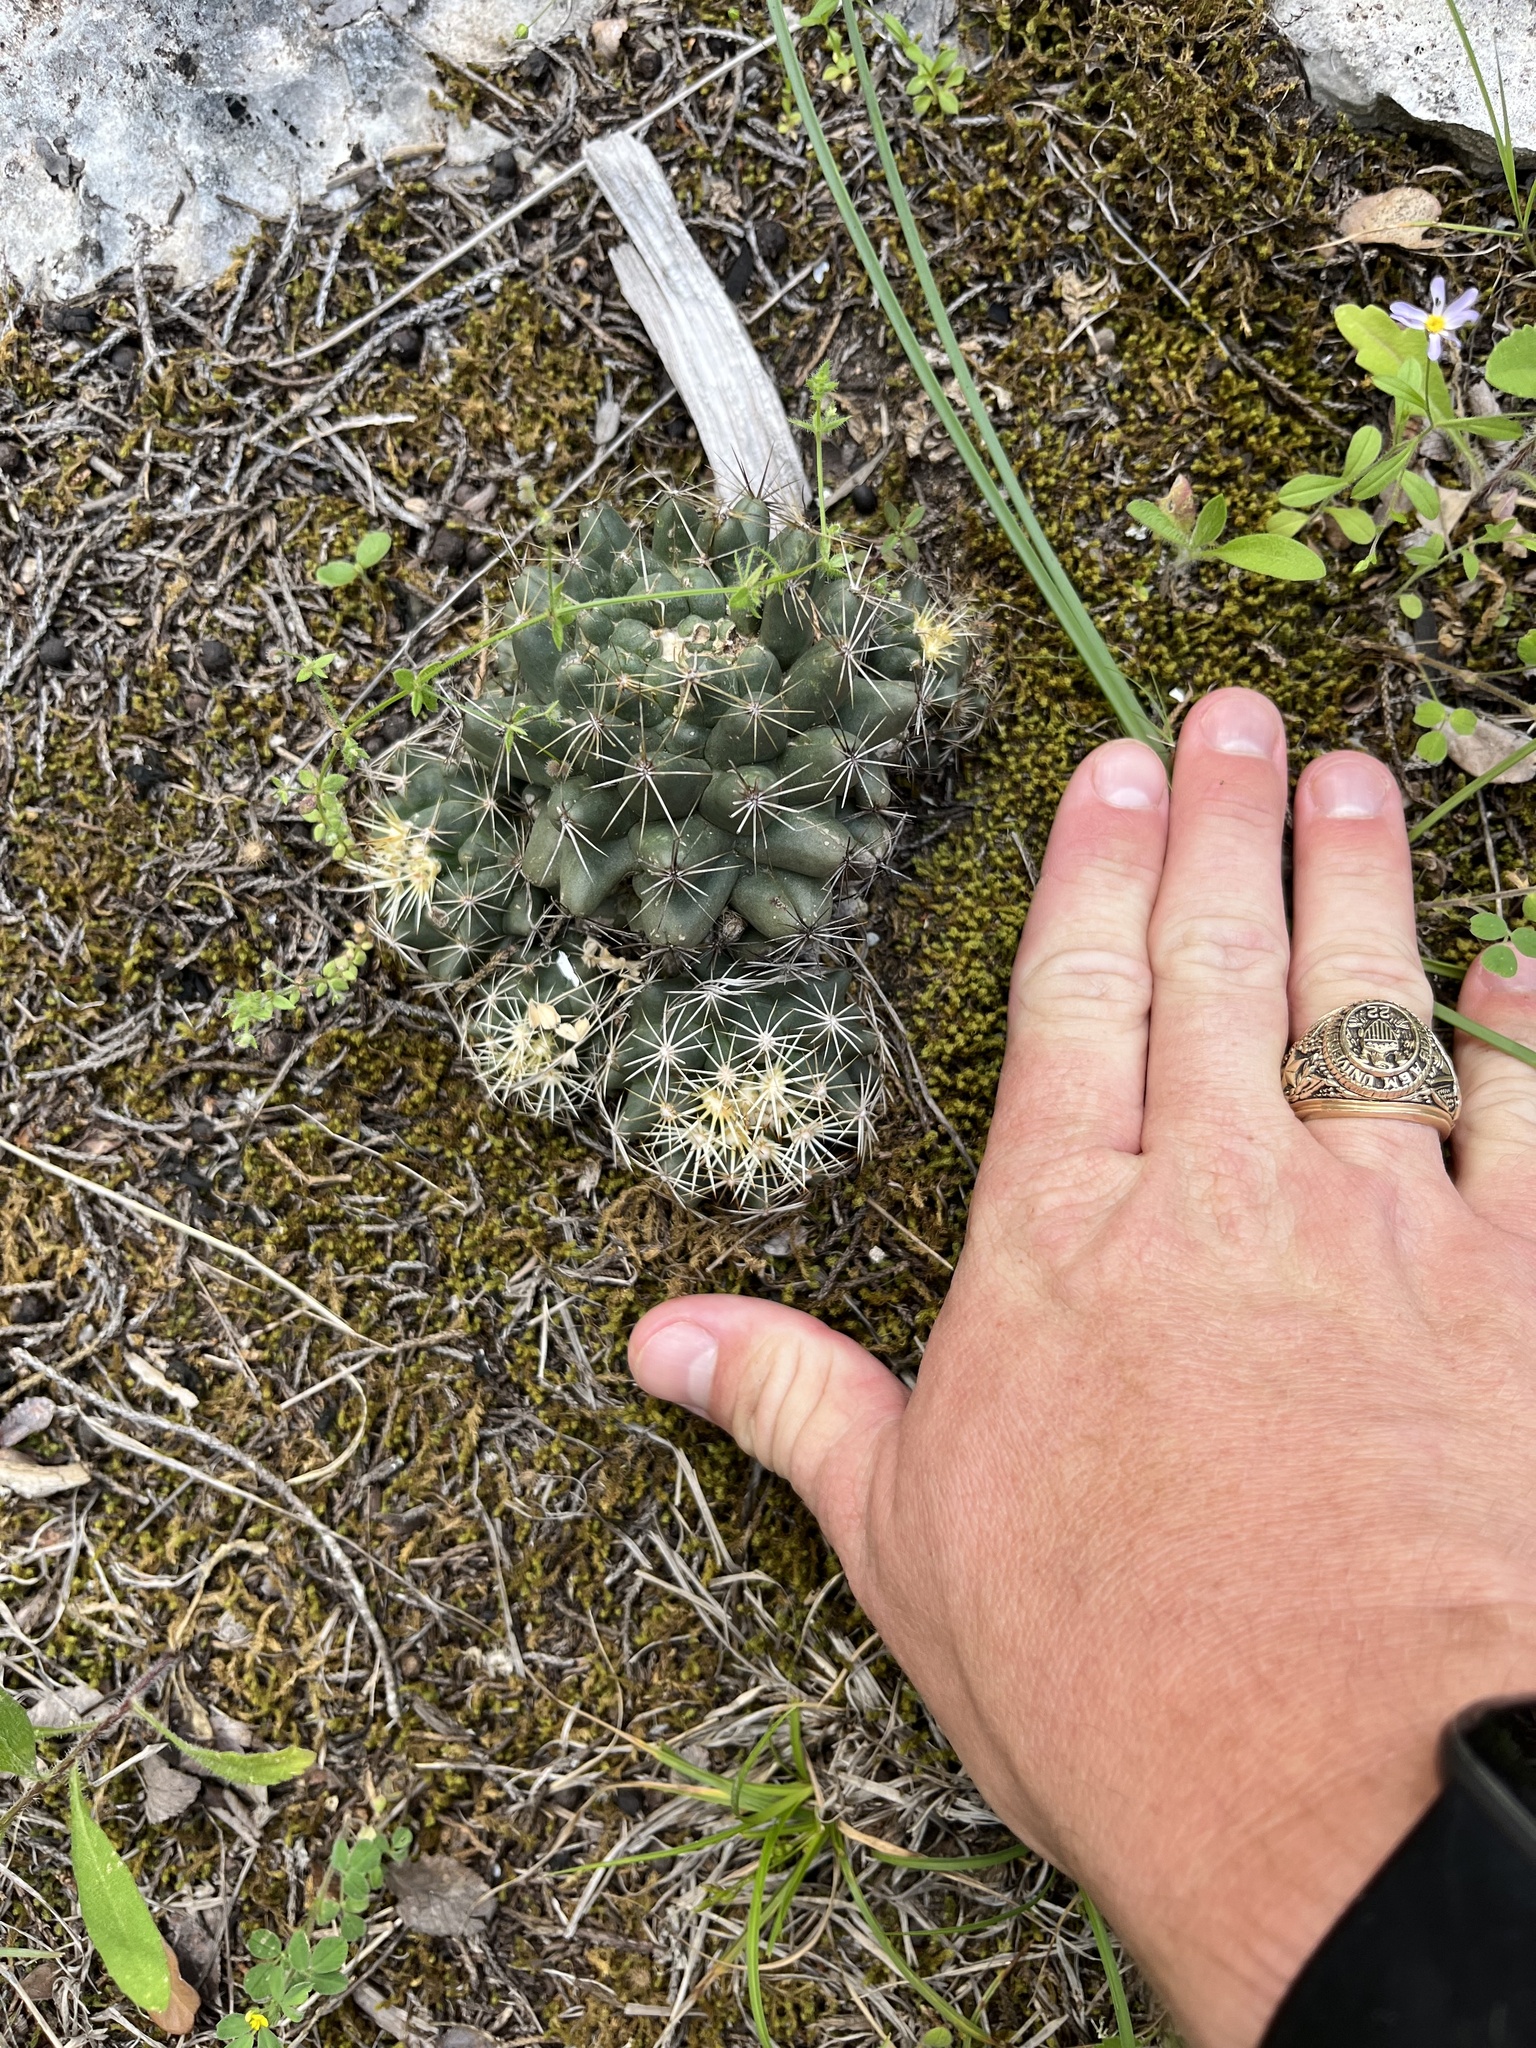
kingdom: Plantae
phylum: Tracheophyta
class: Magnoliopsida
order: Caryophyllales
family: Cactaceae
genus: Coryphantha
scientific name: Coryphantha sulcata
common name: Finger cactus
